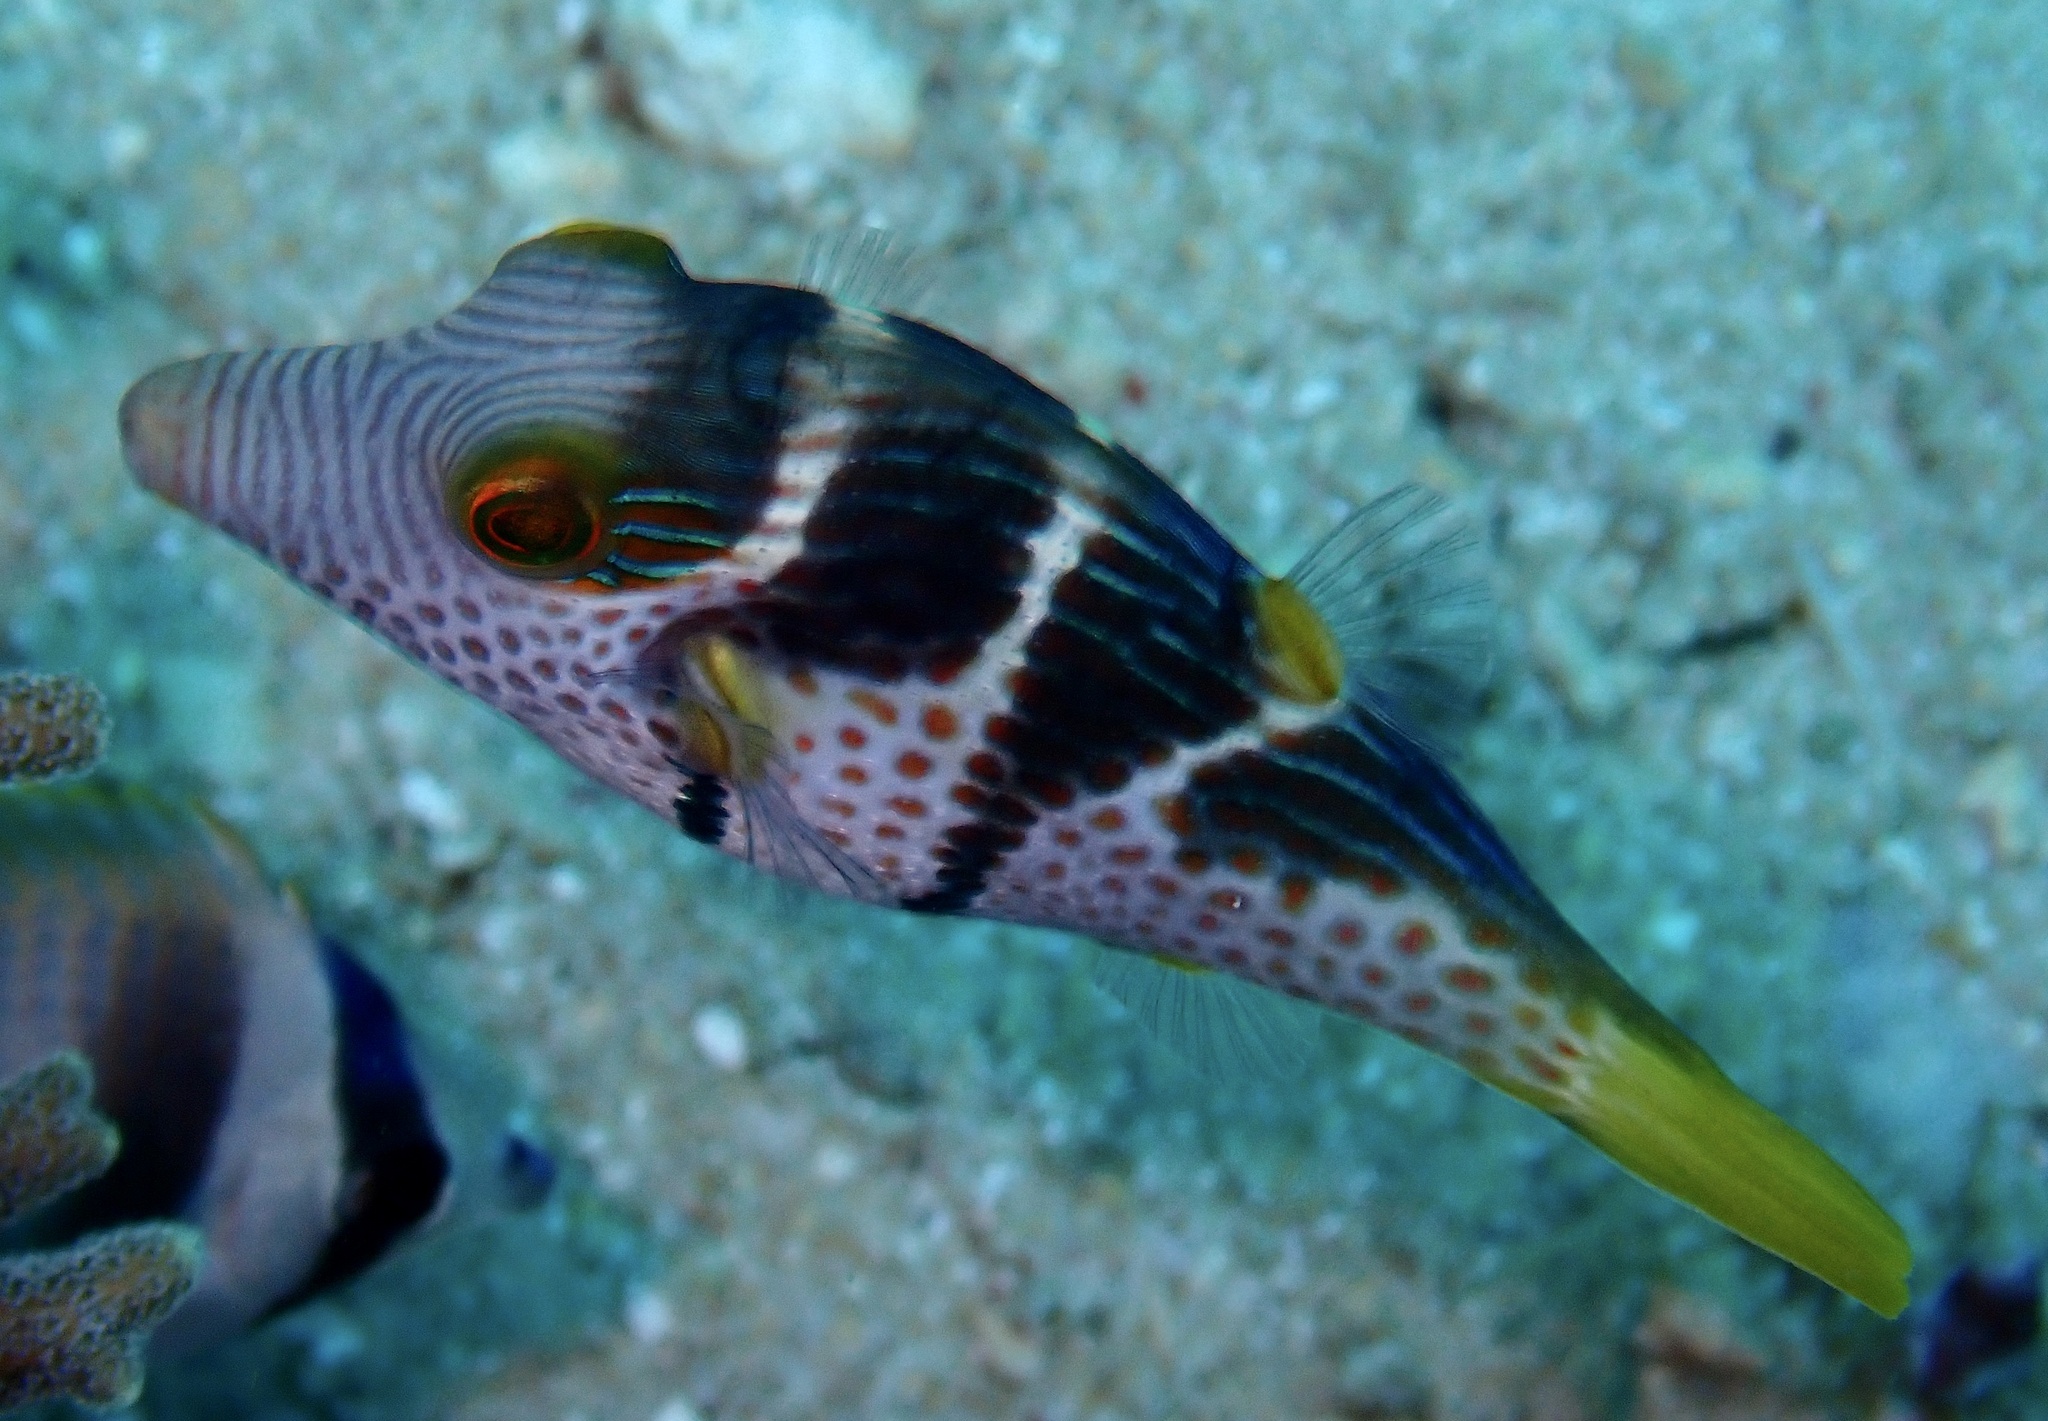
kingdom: Animalia
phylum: Chordata
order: Tetraodontiformes
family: Tetraodontidae
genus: Canthigaster
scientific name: Canthigaster valentini
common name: Banded toby
